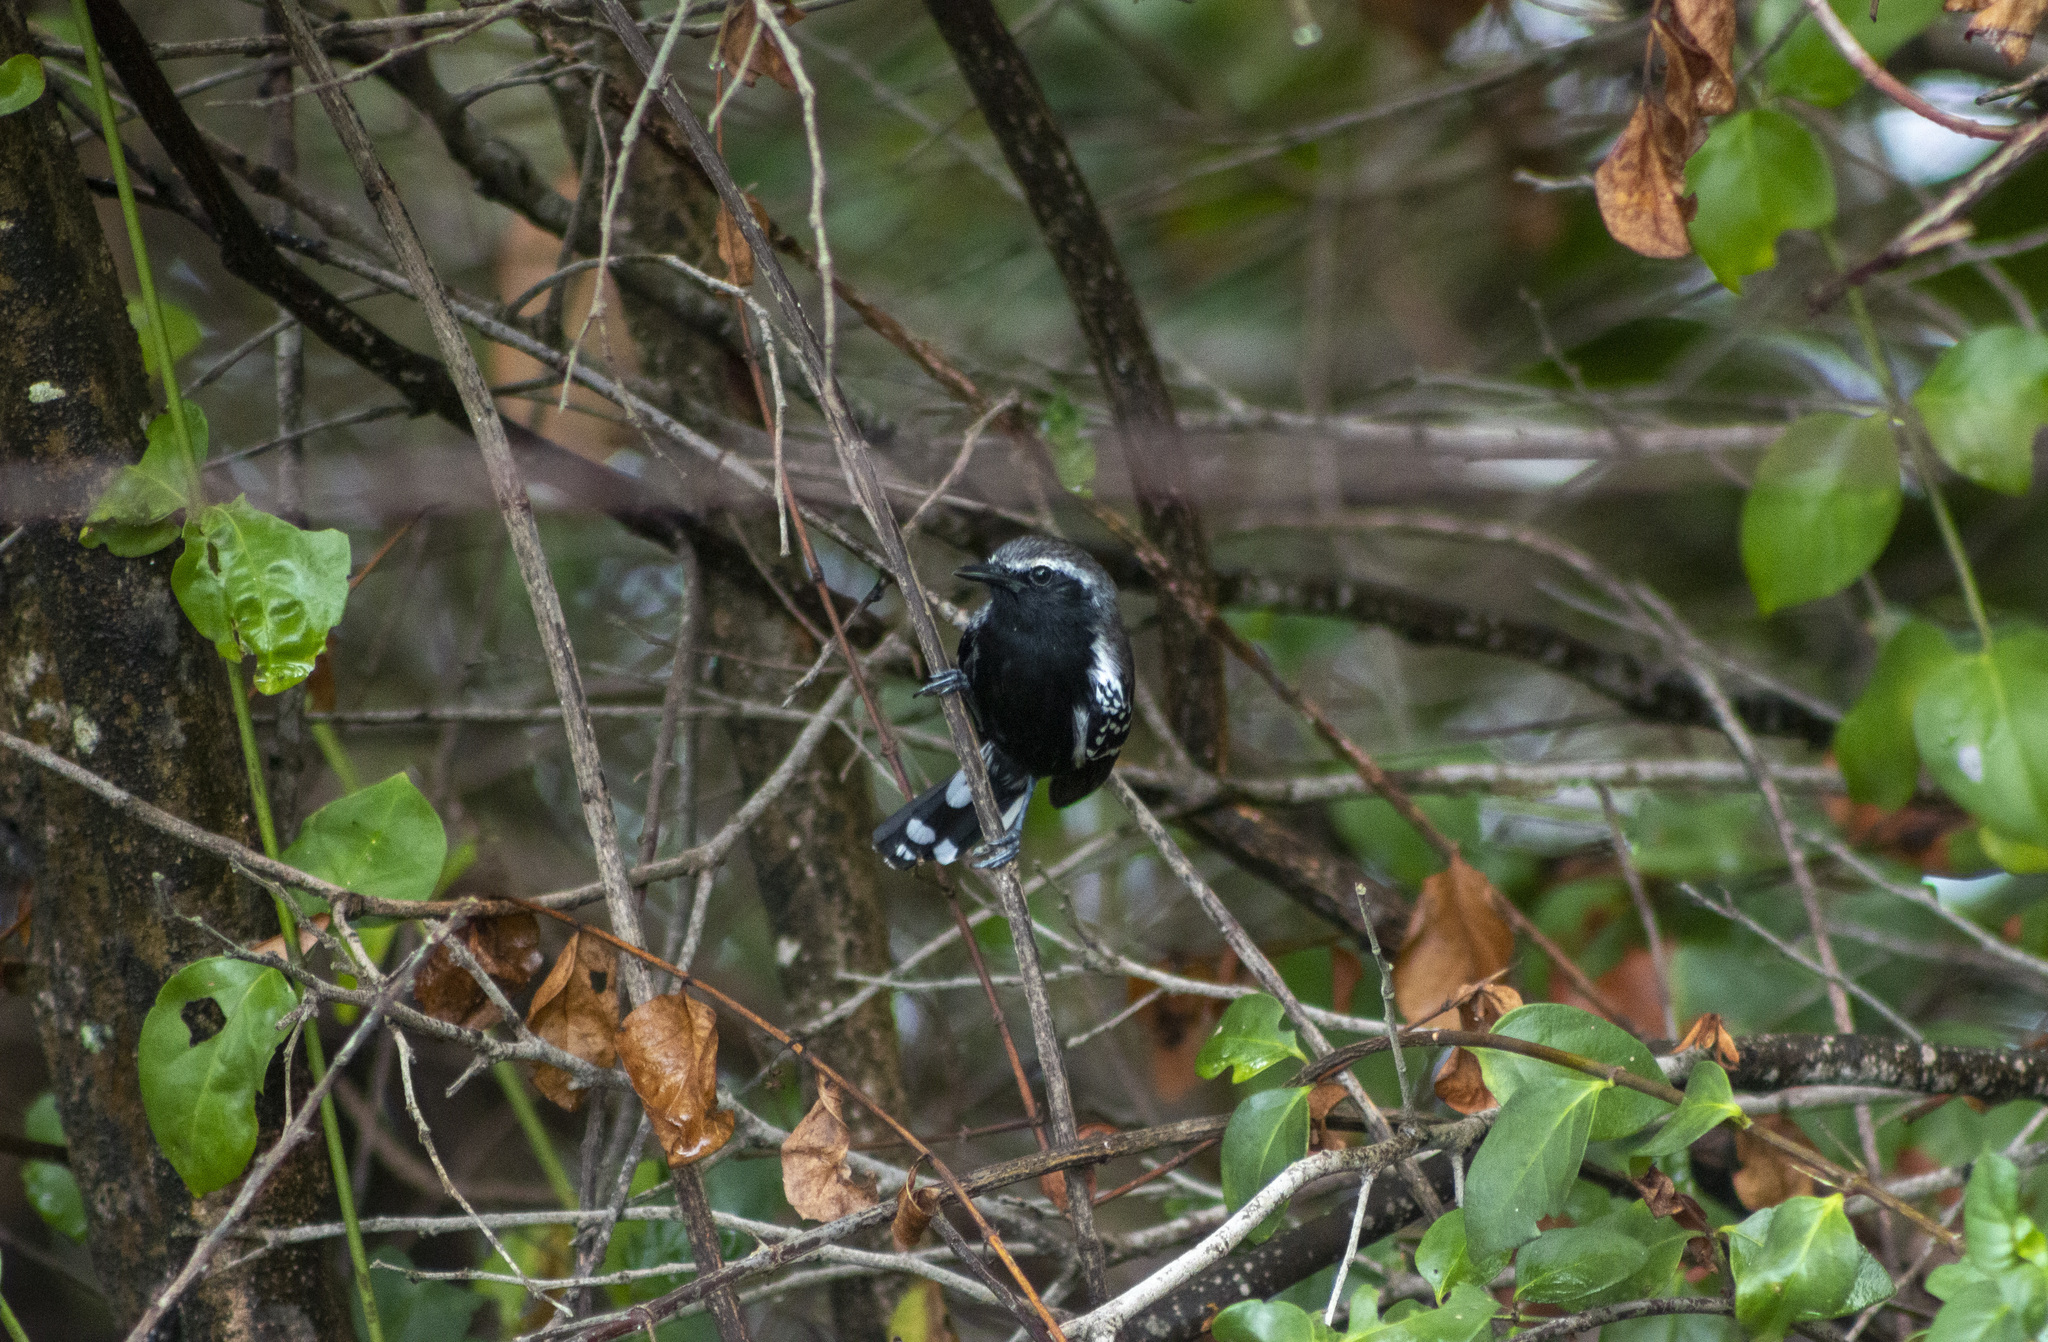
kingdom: Animalia
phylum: Chordata
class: Aves
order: Passeriformes
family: Thamnophilidae
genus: Formicivora
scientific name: Formicivora grisea
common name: Southern white-fringed antwren
